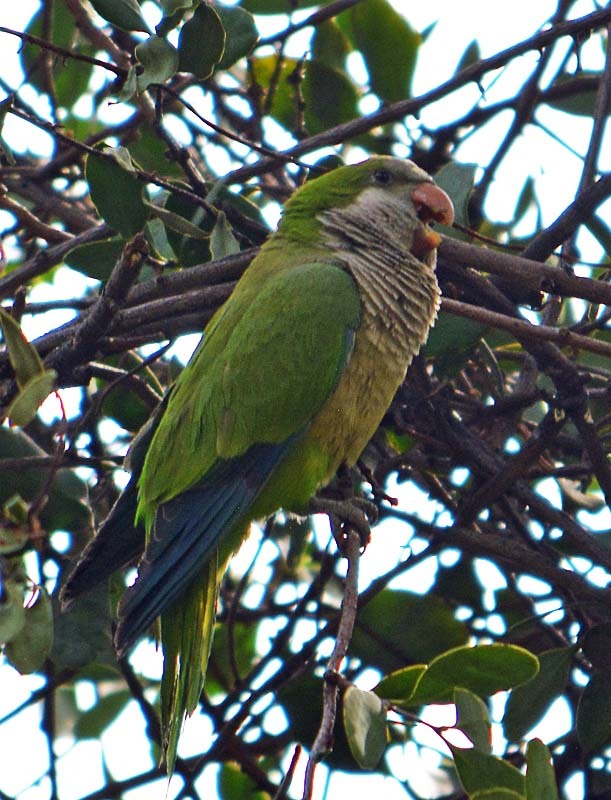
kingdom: Animalia
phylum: Chordata
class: Aves
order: Psittaciformes
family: Psittacidae
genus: Myiopsitta
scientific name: Myiopsitta monachus
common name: Monk parakeet
